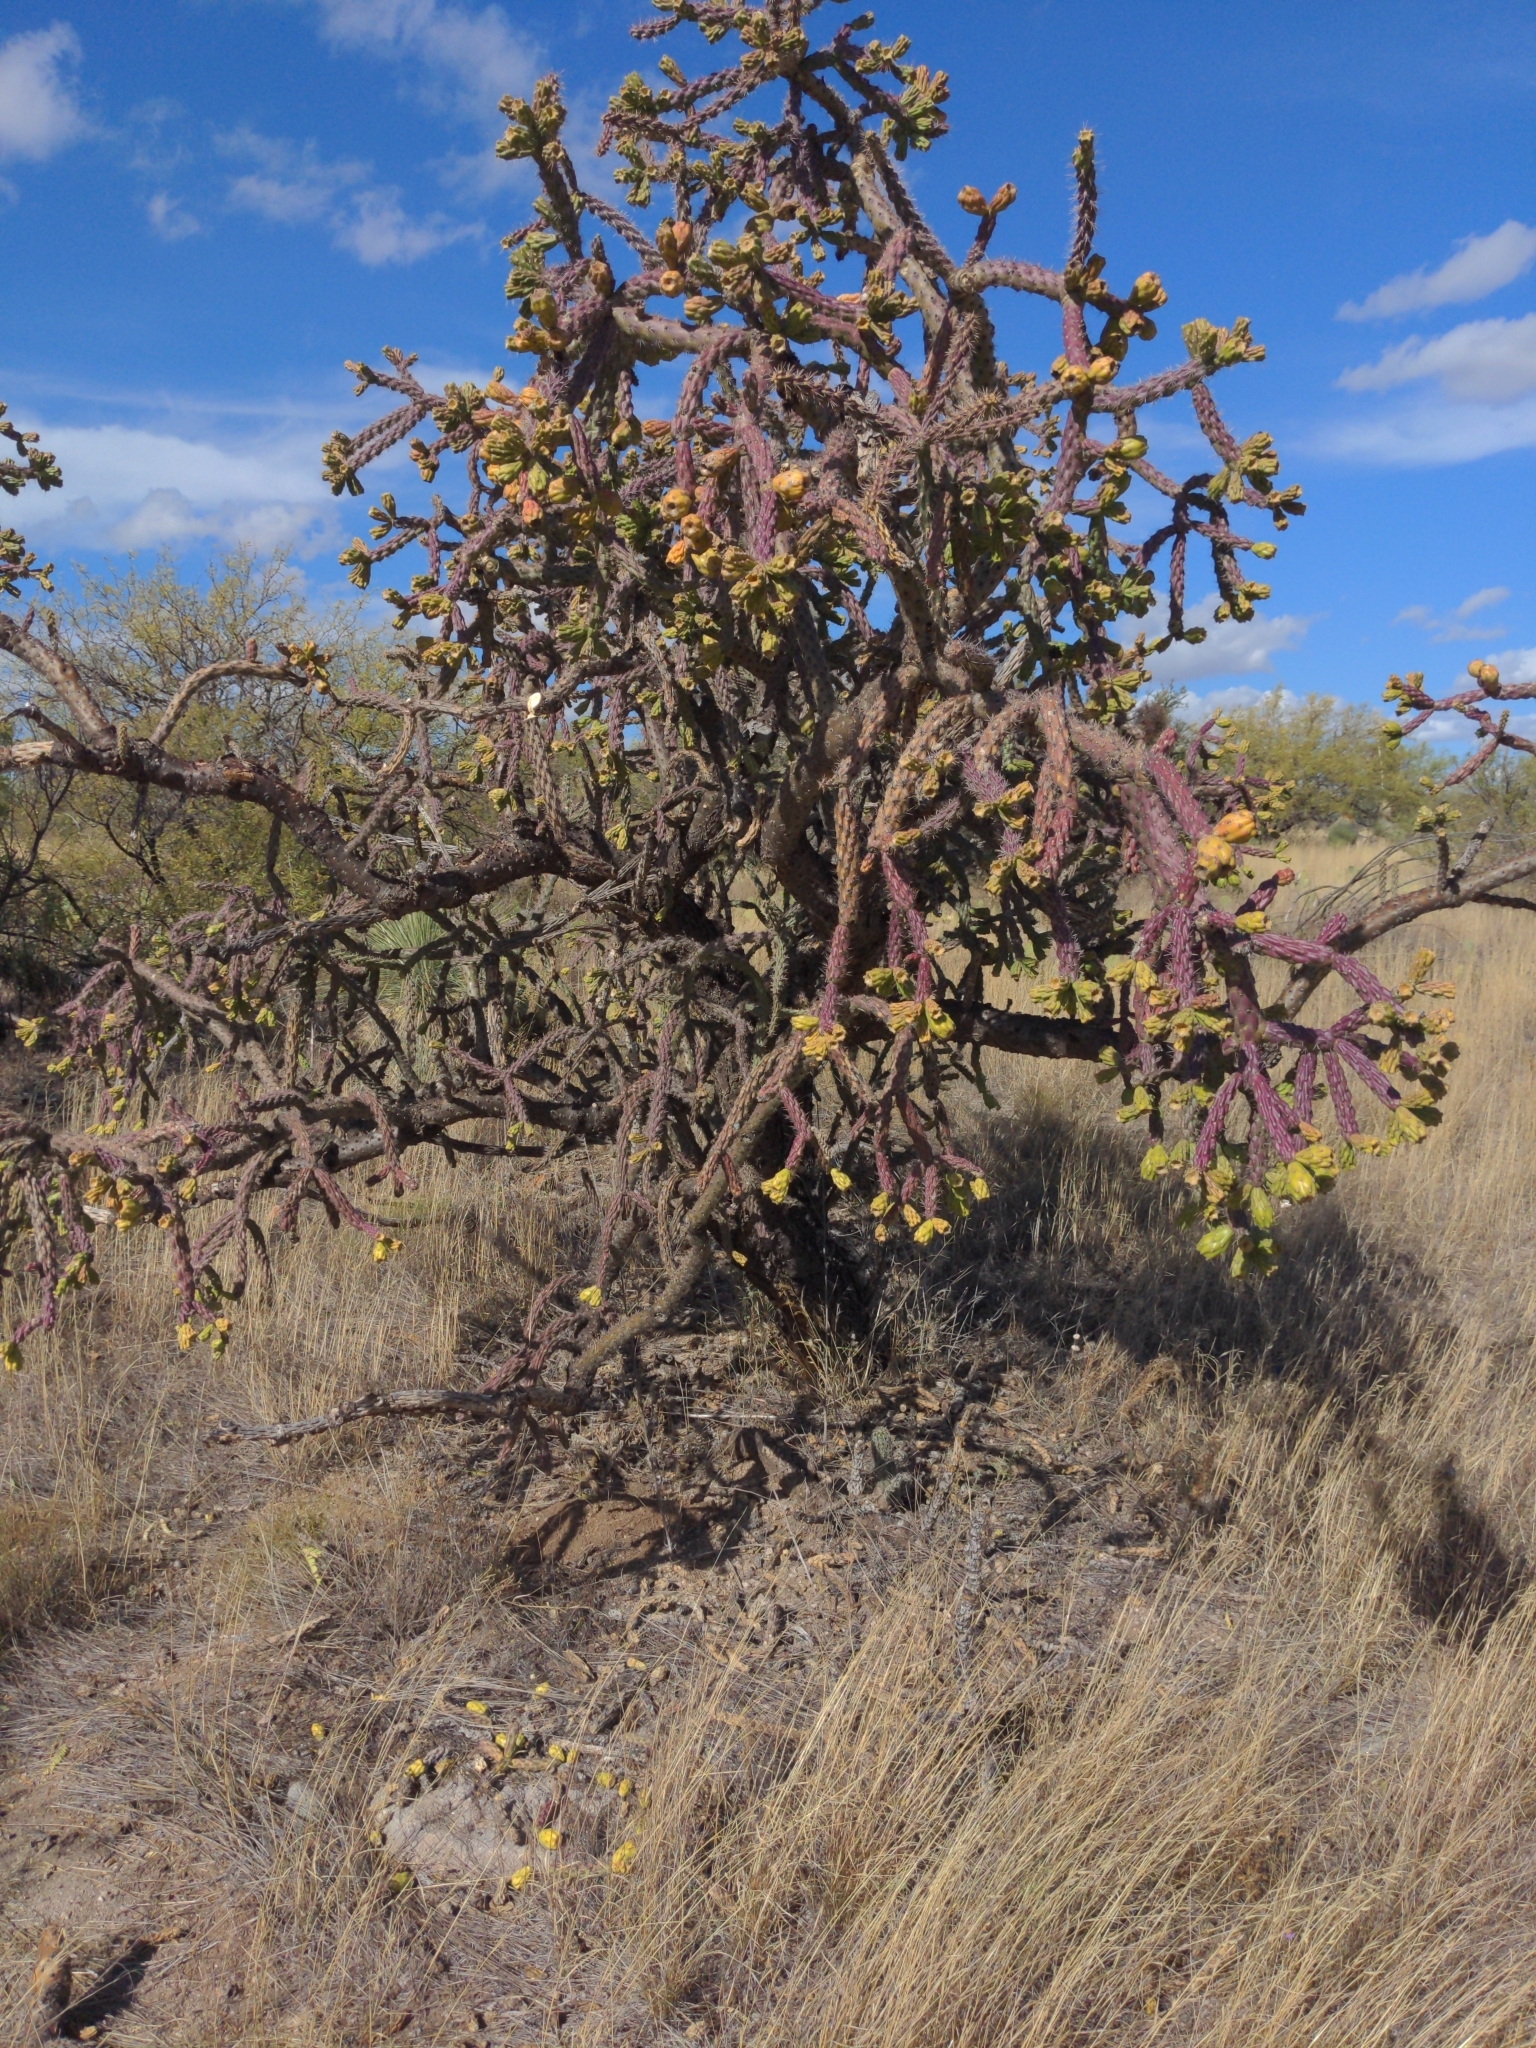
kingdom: Plantae
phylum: Tracheophyta
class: Magnoliopsida
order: Caryophyllales
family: Cactaceae
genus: Cylindropuntia
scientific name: Cylindropuntia thurberi
